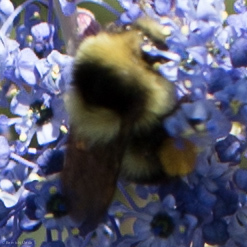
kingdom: Animalia
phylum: Arthropoda
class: Insecta
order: Hymenoptera
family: Apidae
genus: Bombus
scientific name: Bombus melanopygus
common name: Black tail bumble bee
